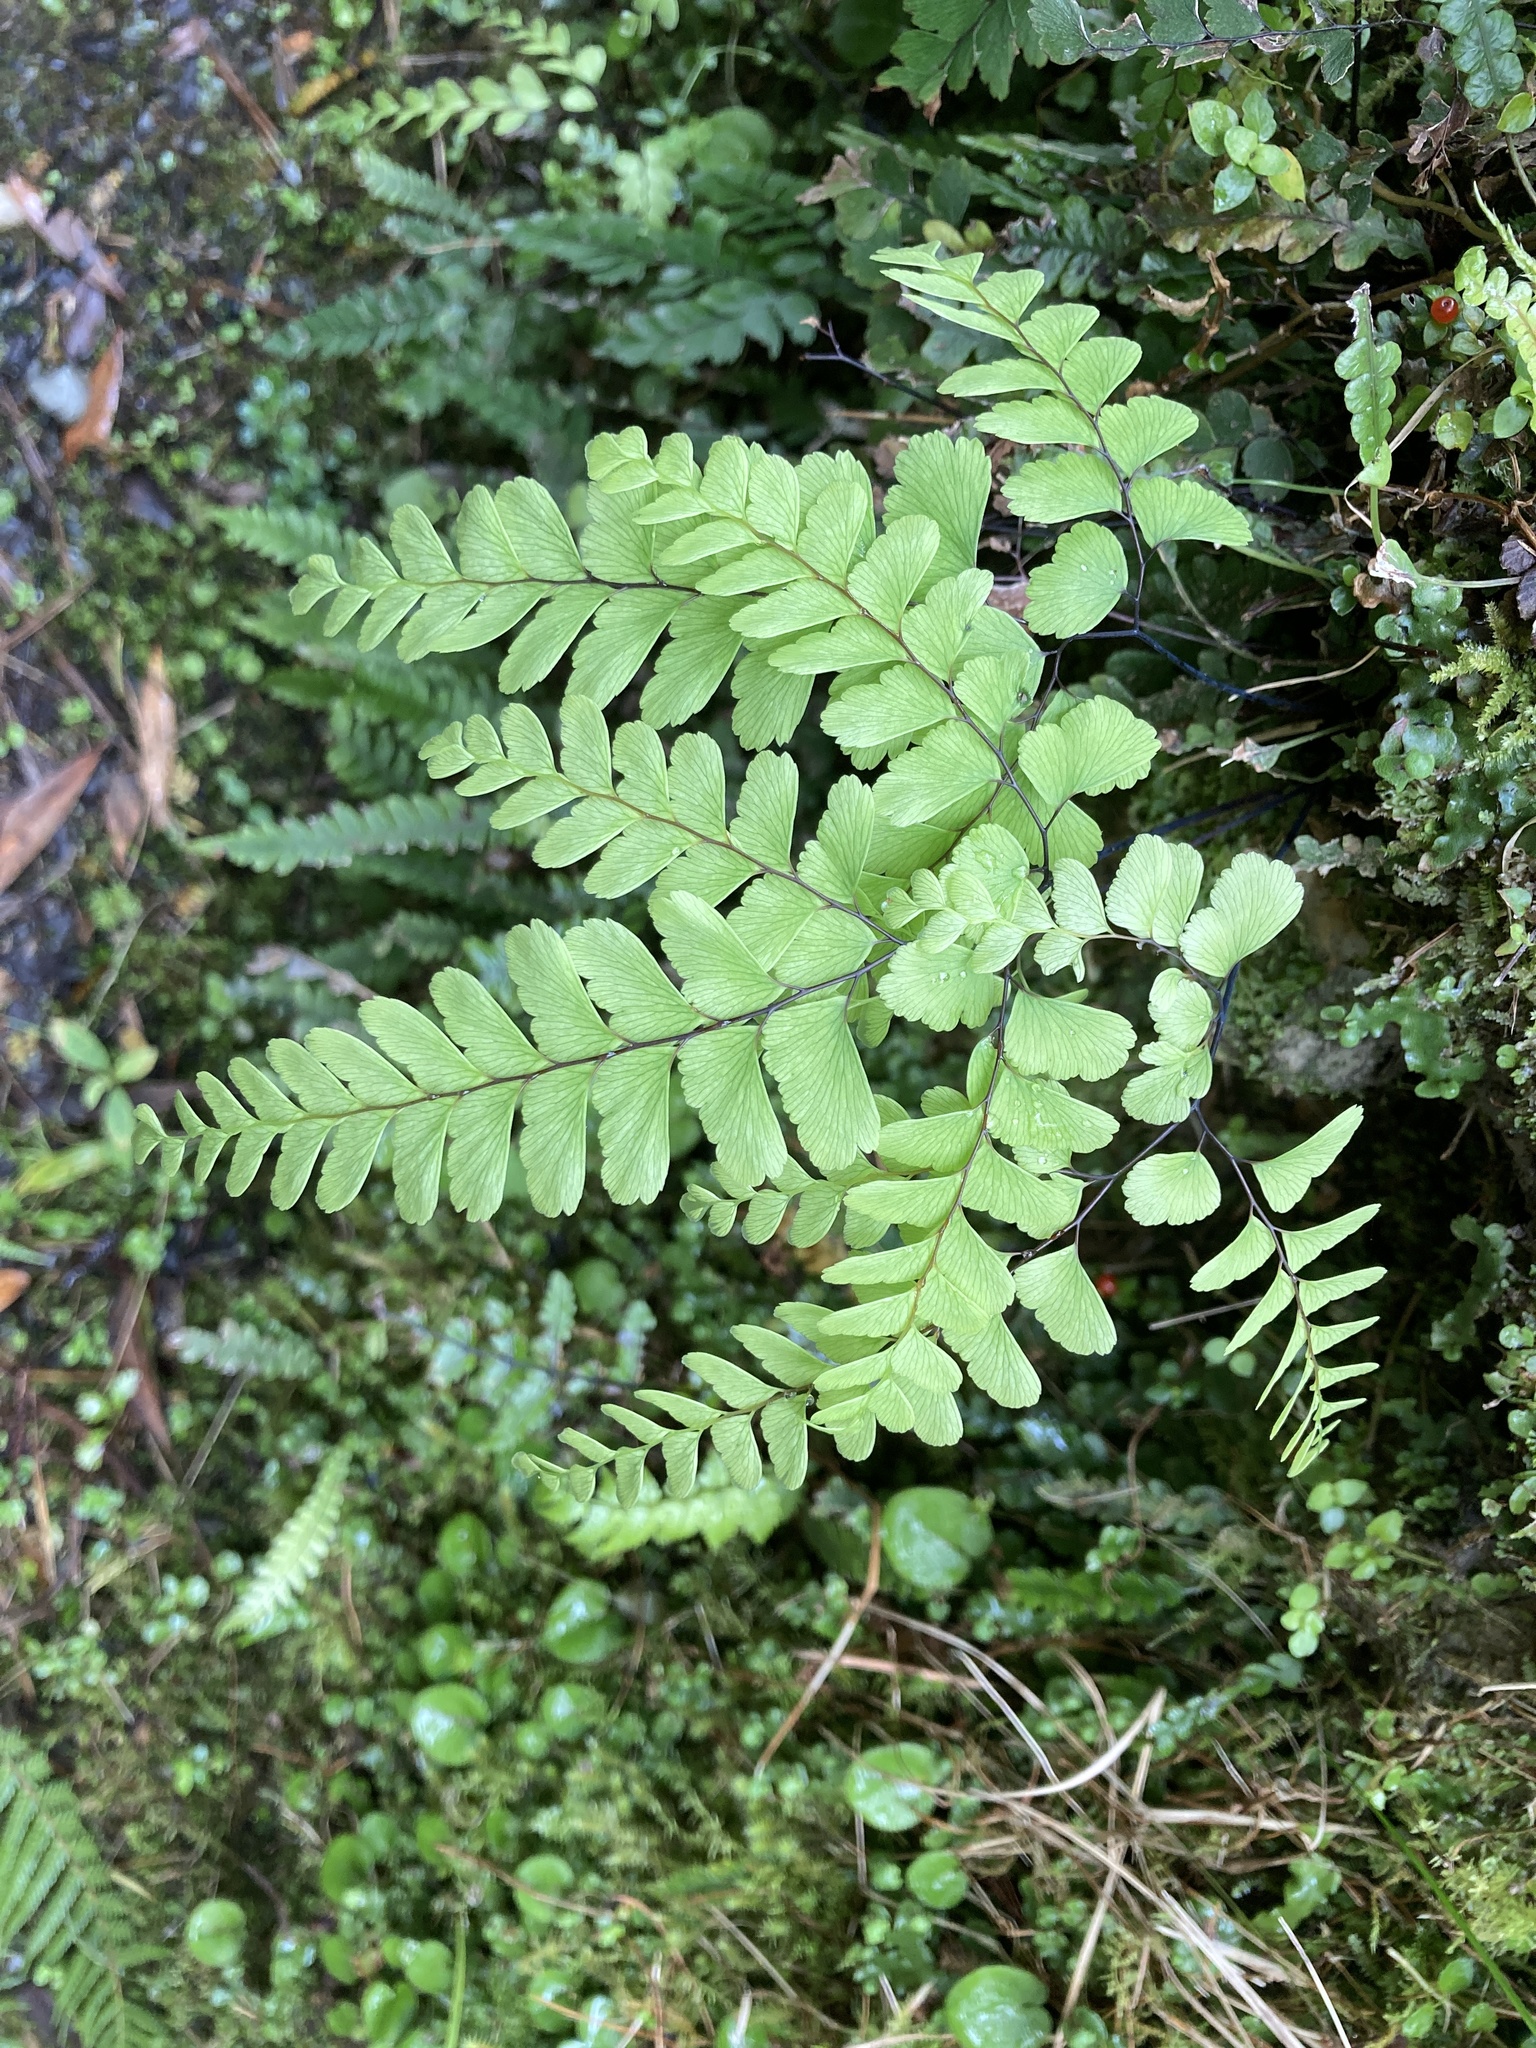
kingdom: Plantae
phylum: Tracheophyta
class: Polypodiopsida
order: Polypodiales
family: Pteridaceae
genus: Adiantum
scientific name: Adiantum cunninghamii
